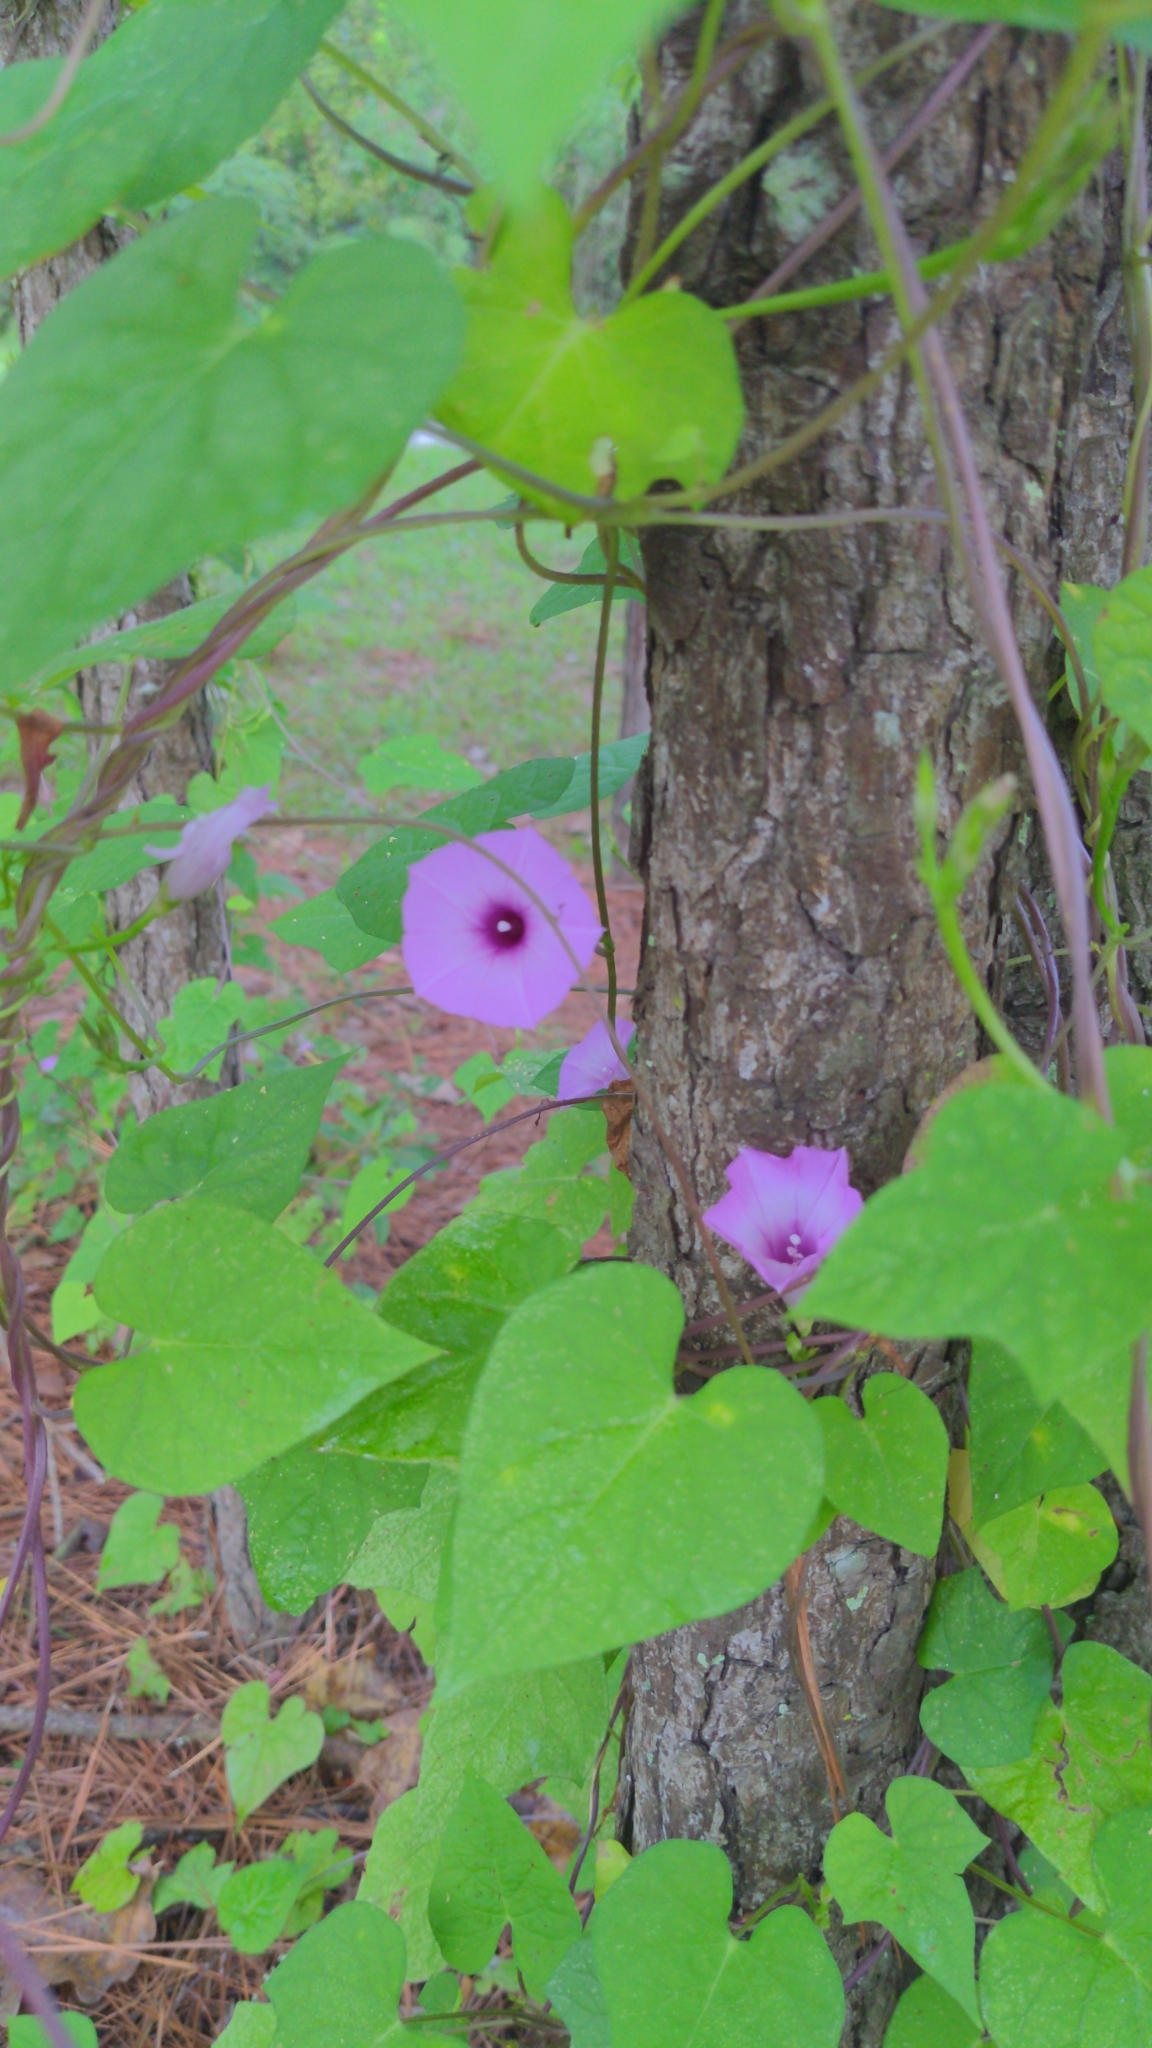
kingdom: Plantae
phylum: Tracheophyta
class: Magnoliopsida
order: Solanales
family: Convolvulaceae
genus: Ipomoea
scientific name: Ipomoea cordatotriloba
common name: Cotton morning glory
